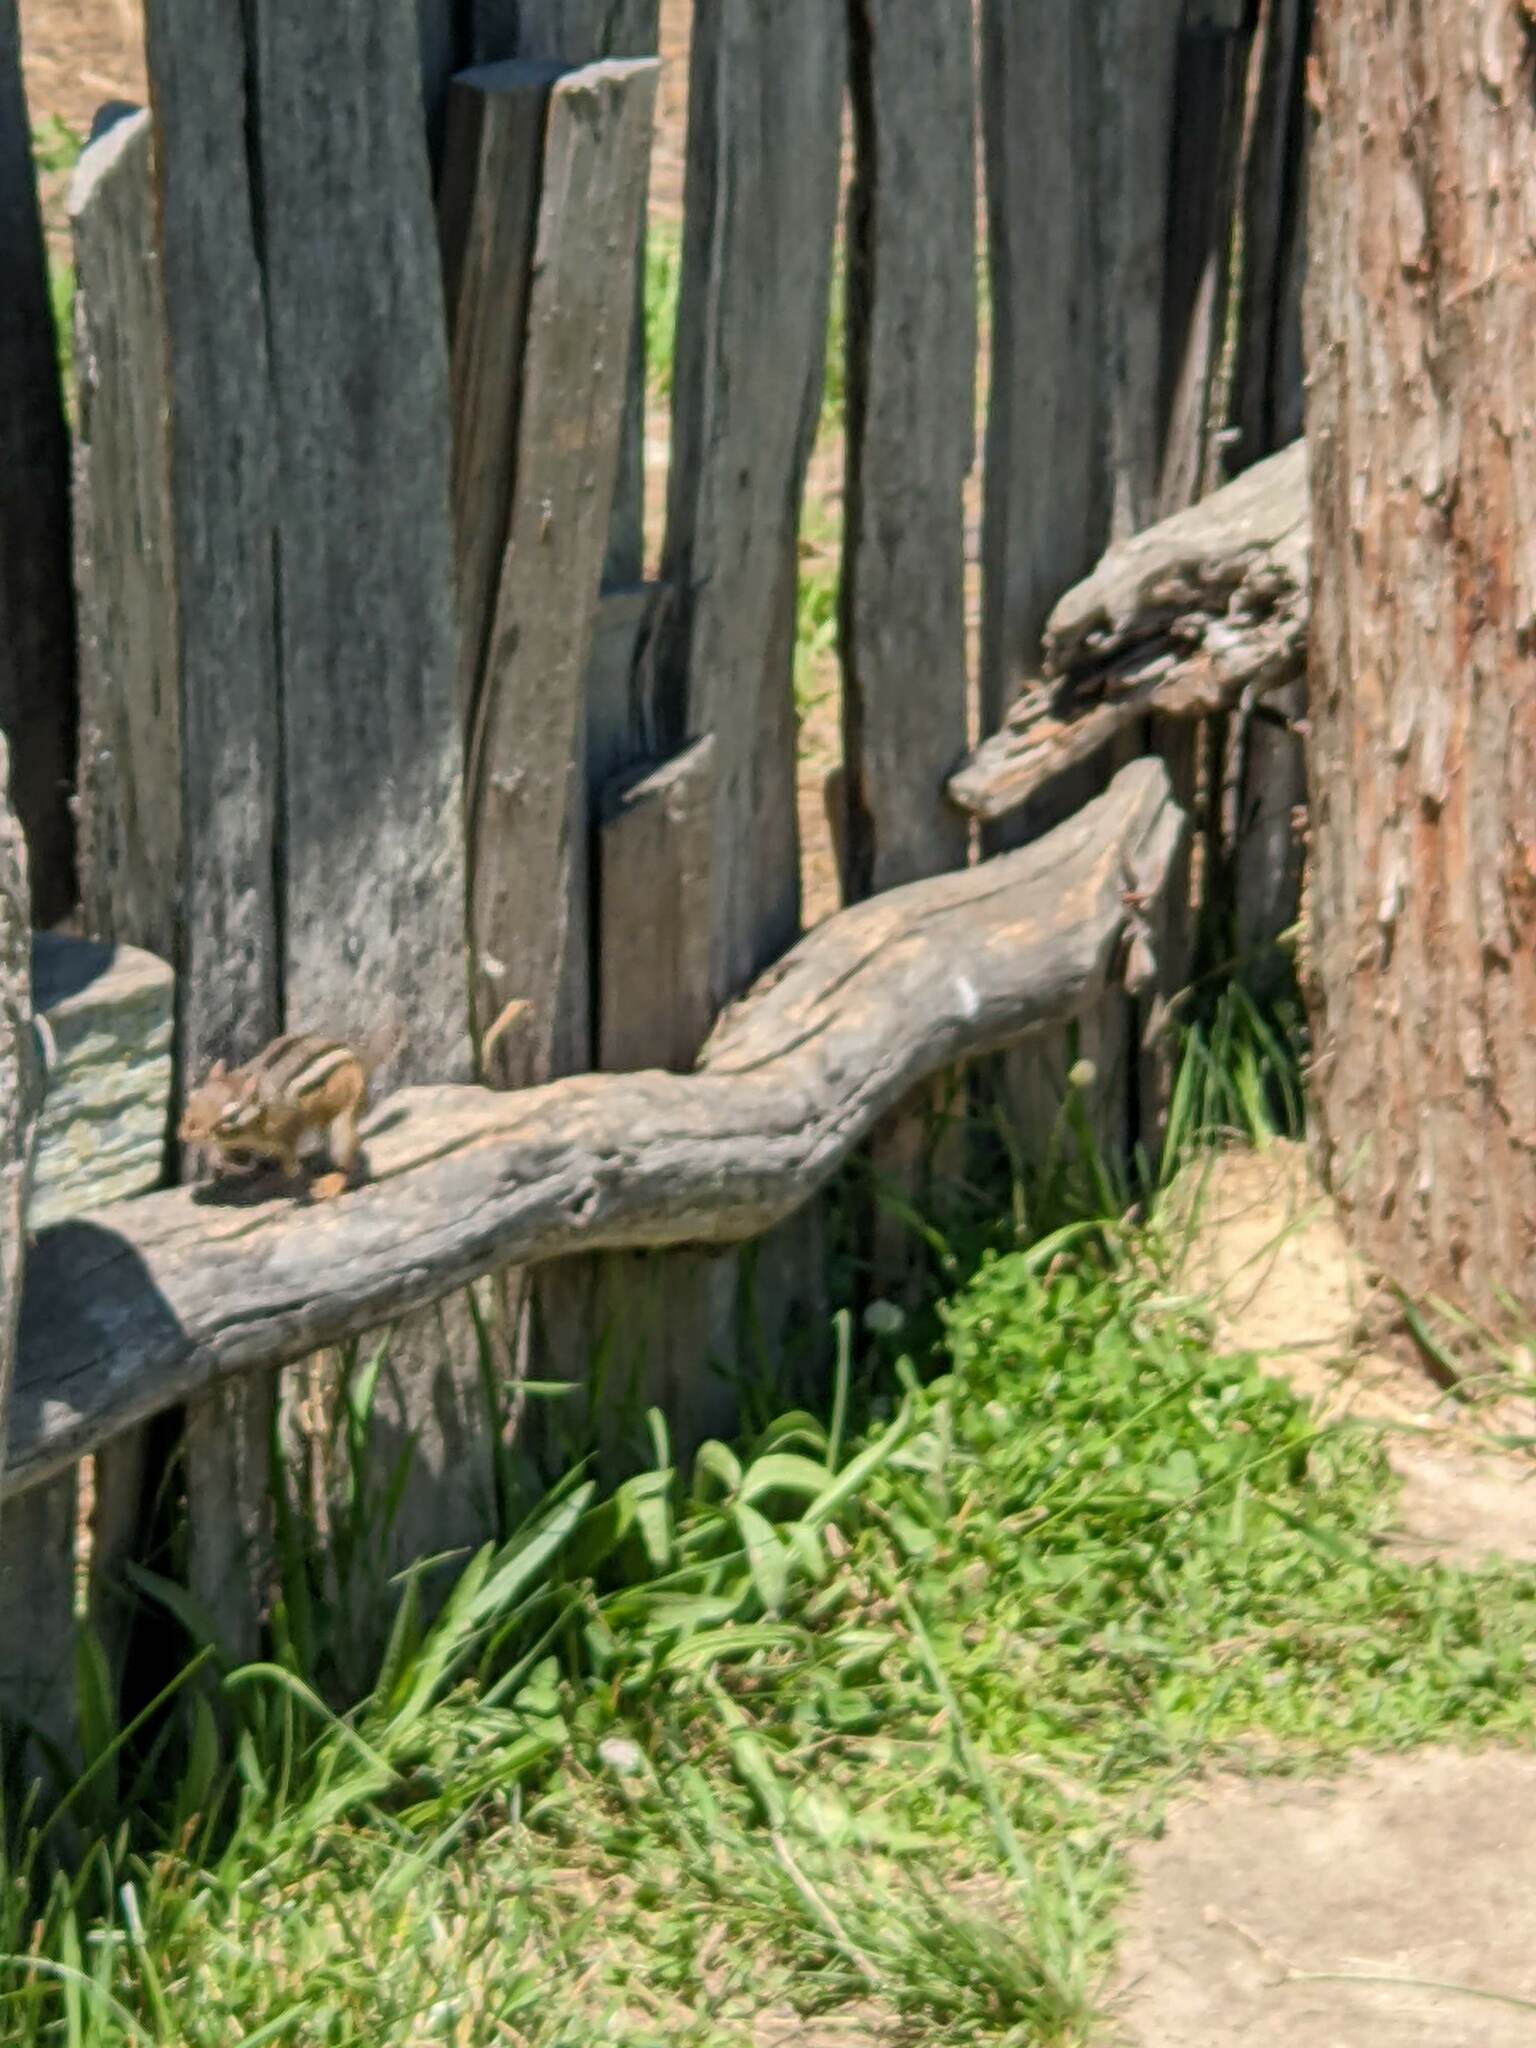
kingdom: Animalia
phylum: Chordata
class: Mammalia
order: Rodentia
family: Sciuridae
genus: Tamias
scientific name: Tamias striatus
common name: Eastern chipmunk
